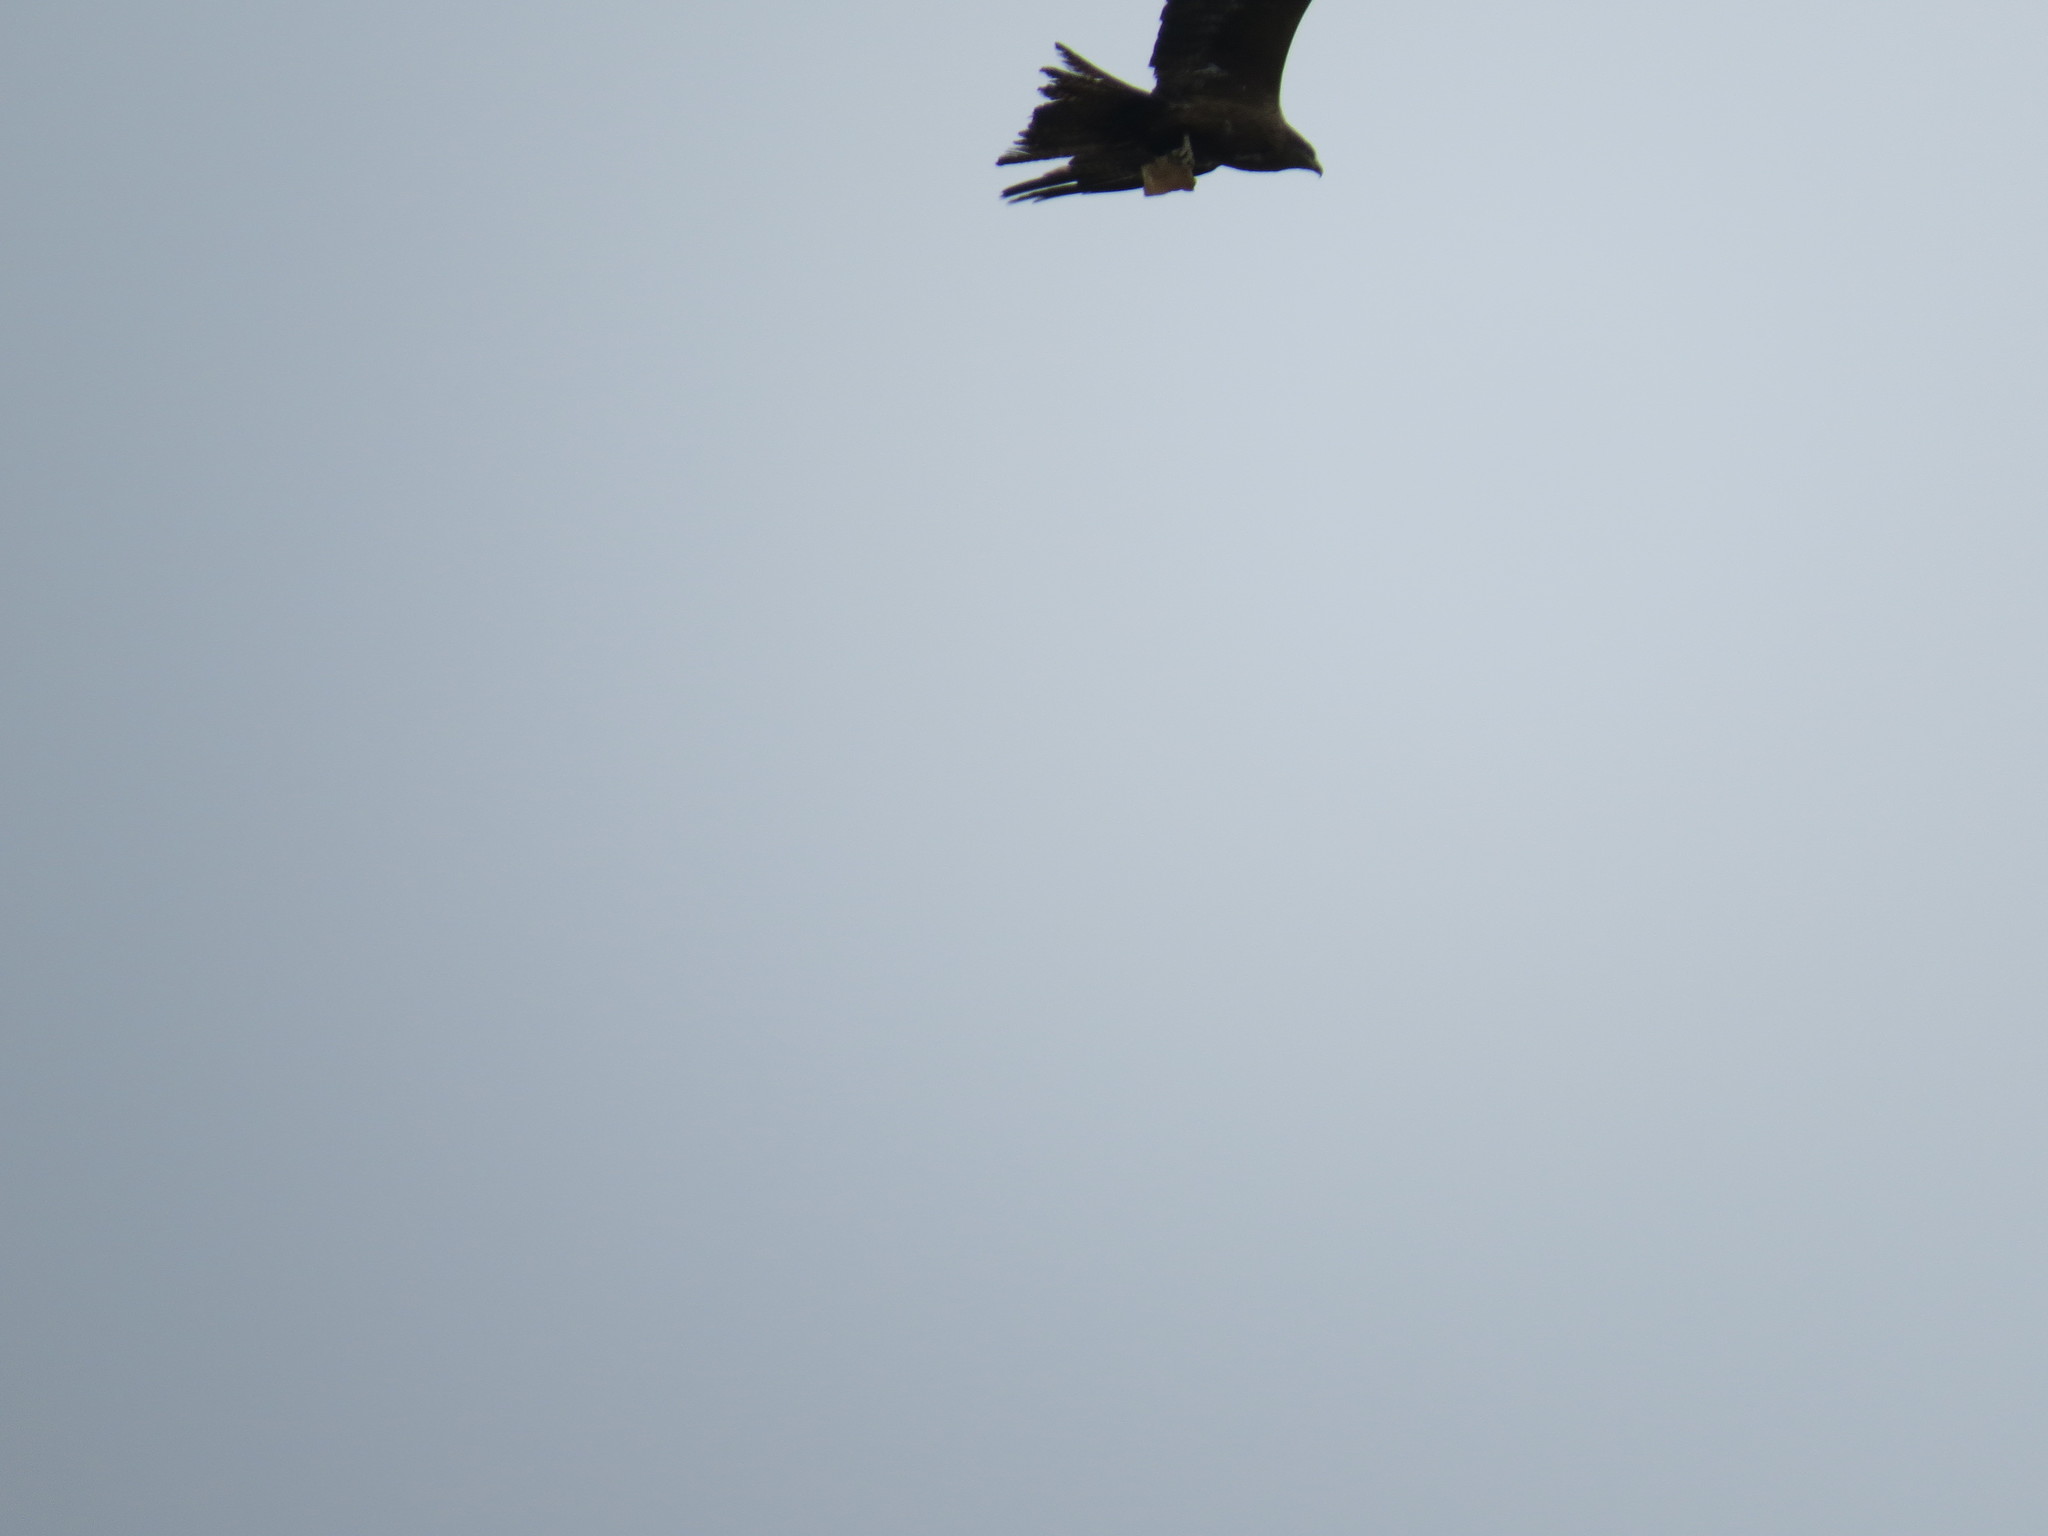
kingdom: Animalia
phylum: Chordata
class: Aves
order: Accipitriformes
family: Accipitridae
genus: Milvus
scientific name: Milvus migrans
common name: Black kite
